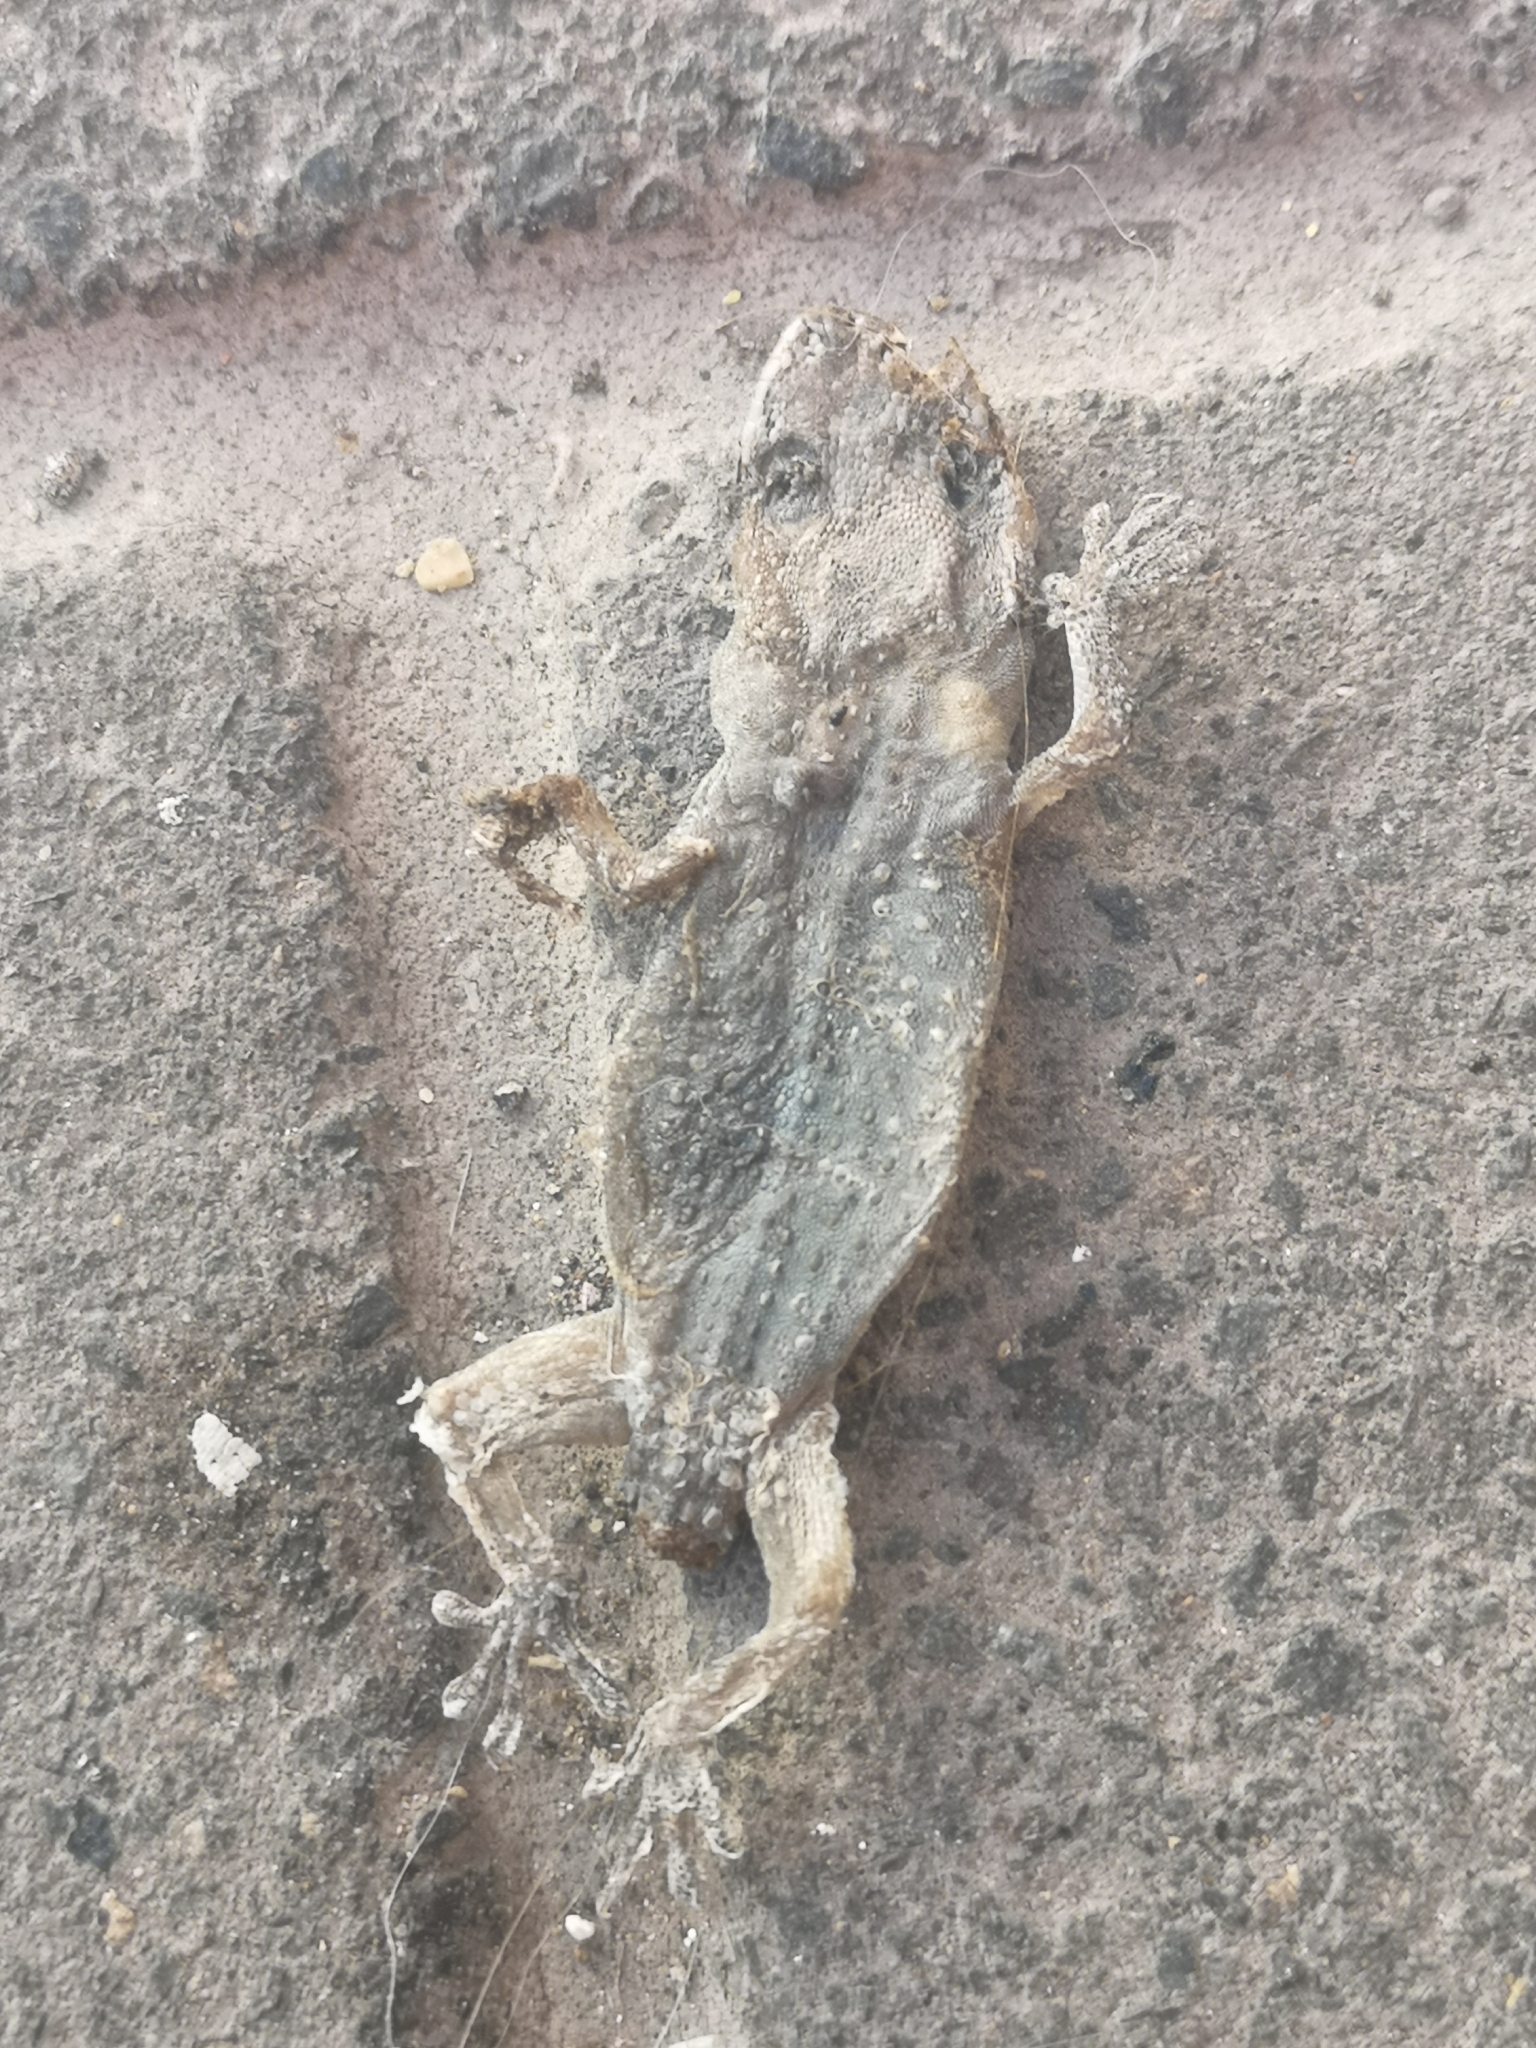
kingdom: Animalia
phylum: Chordata
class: Squamata
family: Phyllodactylidae
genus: Tarentola
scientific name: Tarentola delalandii
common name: Tenerife wall gecko
